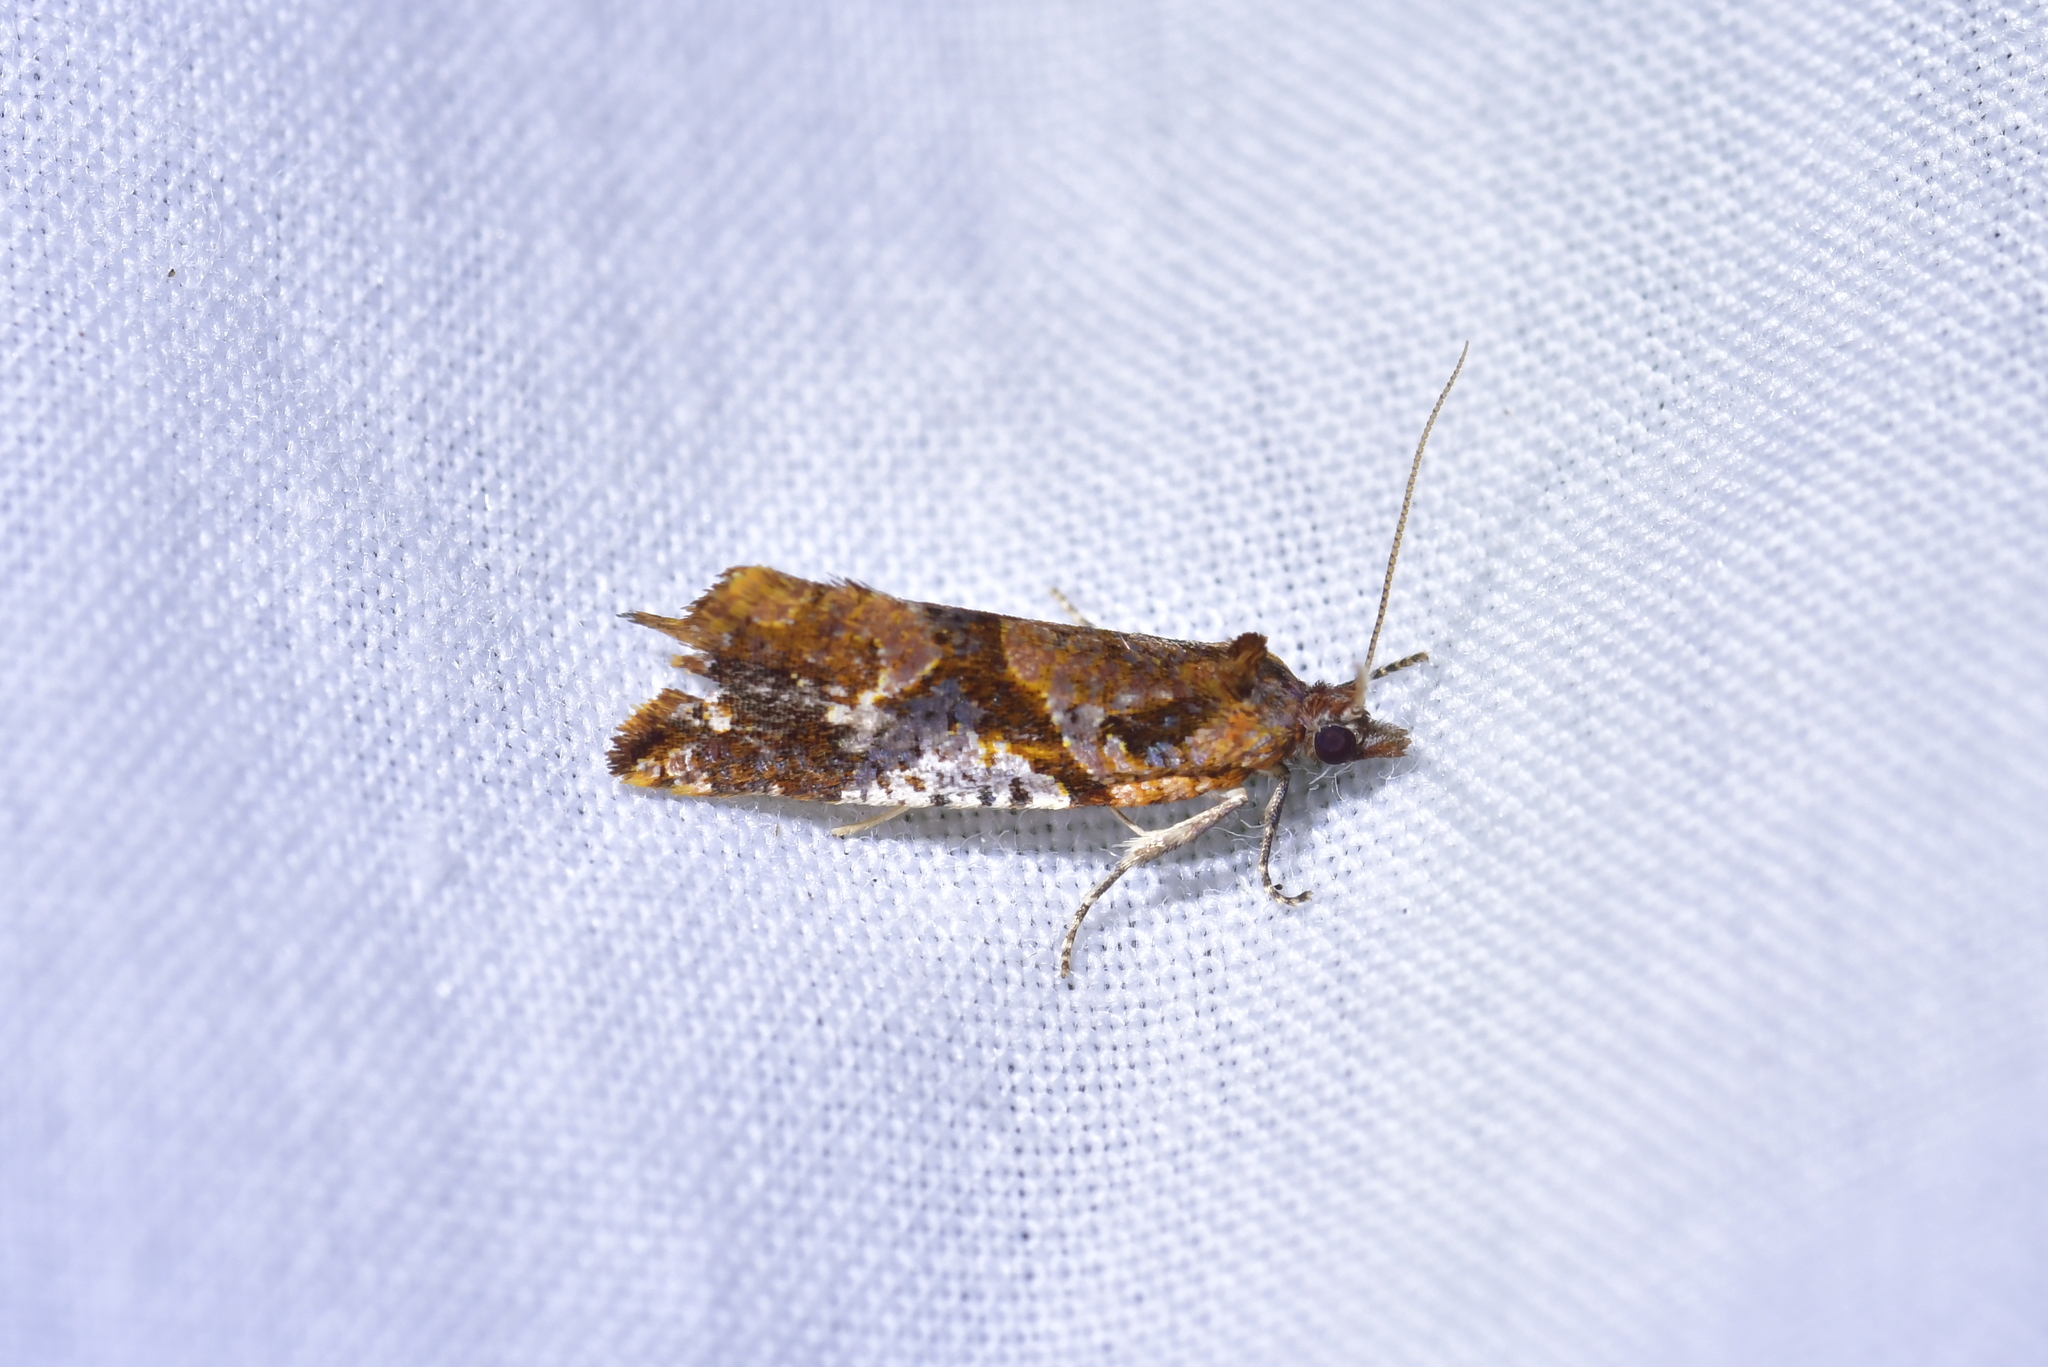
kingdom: Animalia
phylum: Arthropoda
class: Insecta
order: Lepidoptera
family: Tortricidae
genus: Pyrgotis
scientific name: Pyrgotis plagiatana
